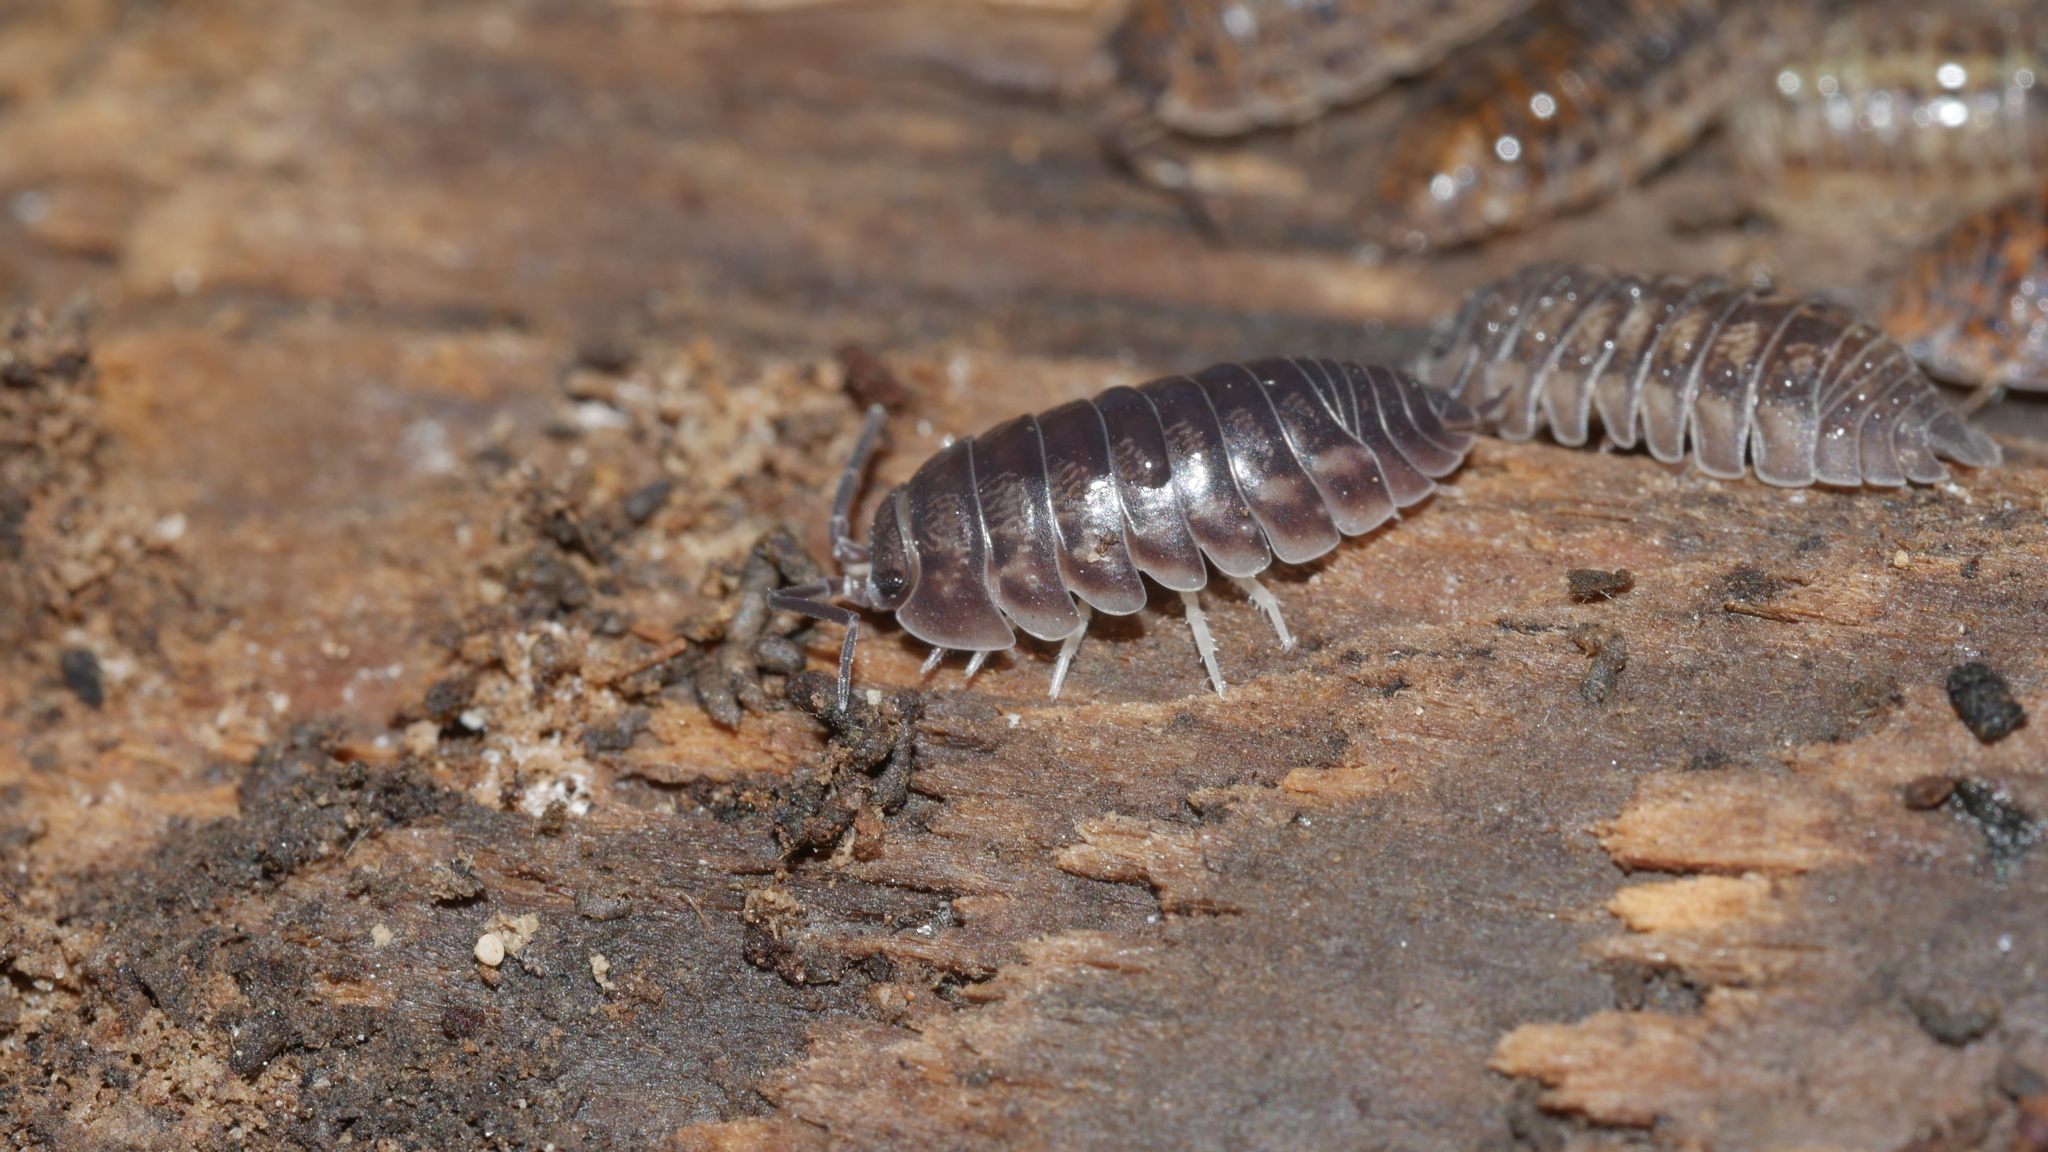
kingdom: Animalia
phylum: Arthropoda
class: Malacostraca
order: Isopoda
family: Cylisticidae
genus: Cylisticus
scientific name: Cylisticus convexus
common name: Curly woodlouse
